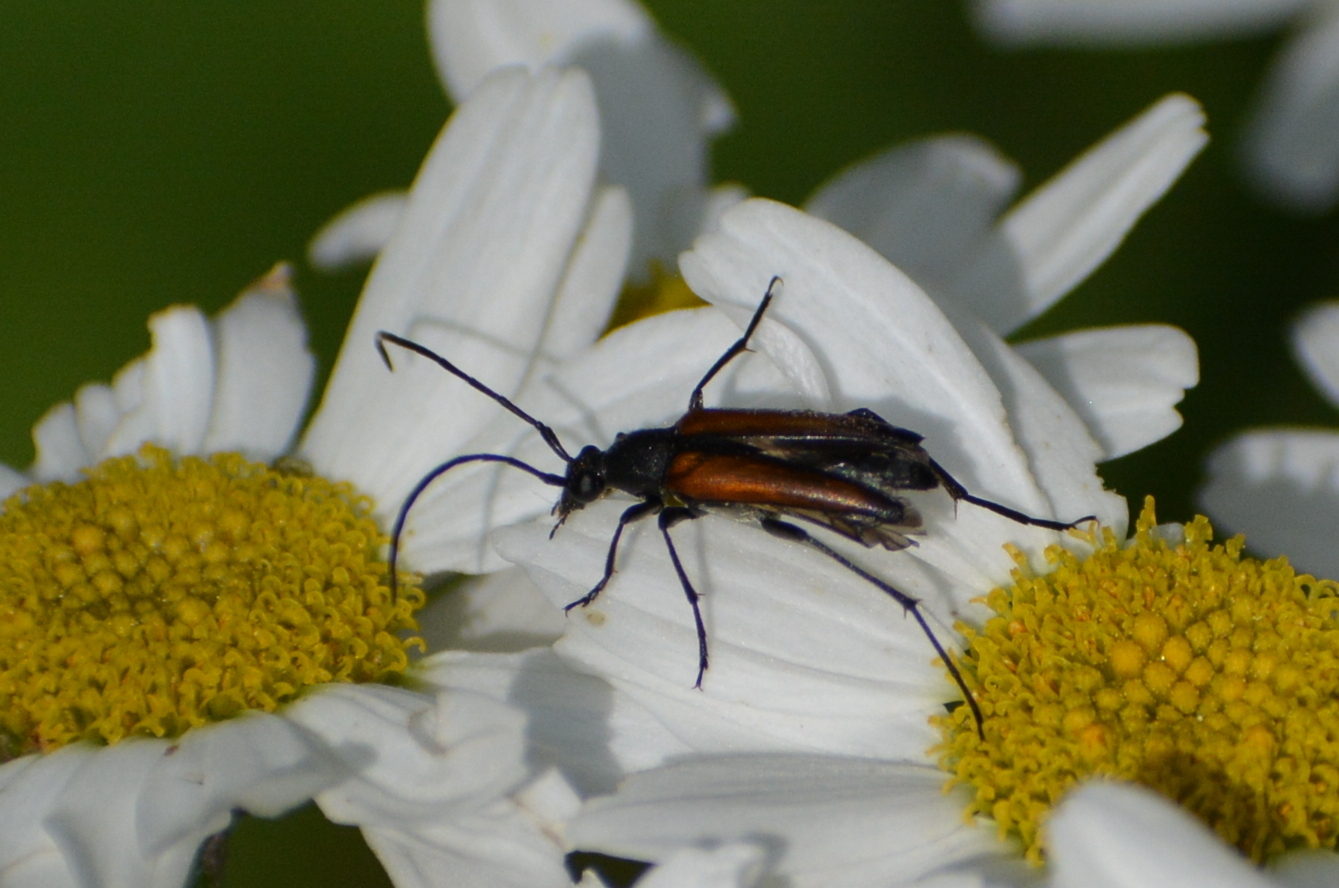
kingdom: Animalia
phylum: Arthropoda
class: Insecta
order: Coleoptera
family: Cerambycidae
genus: Stenurella
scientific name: Stenurella melanura
